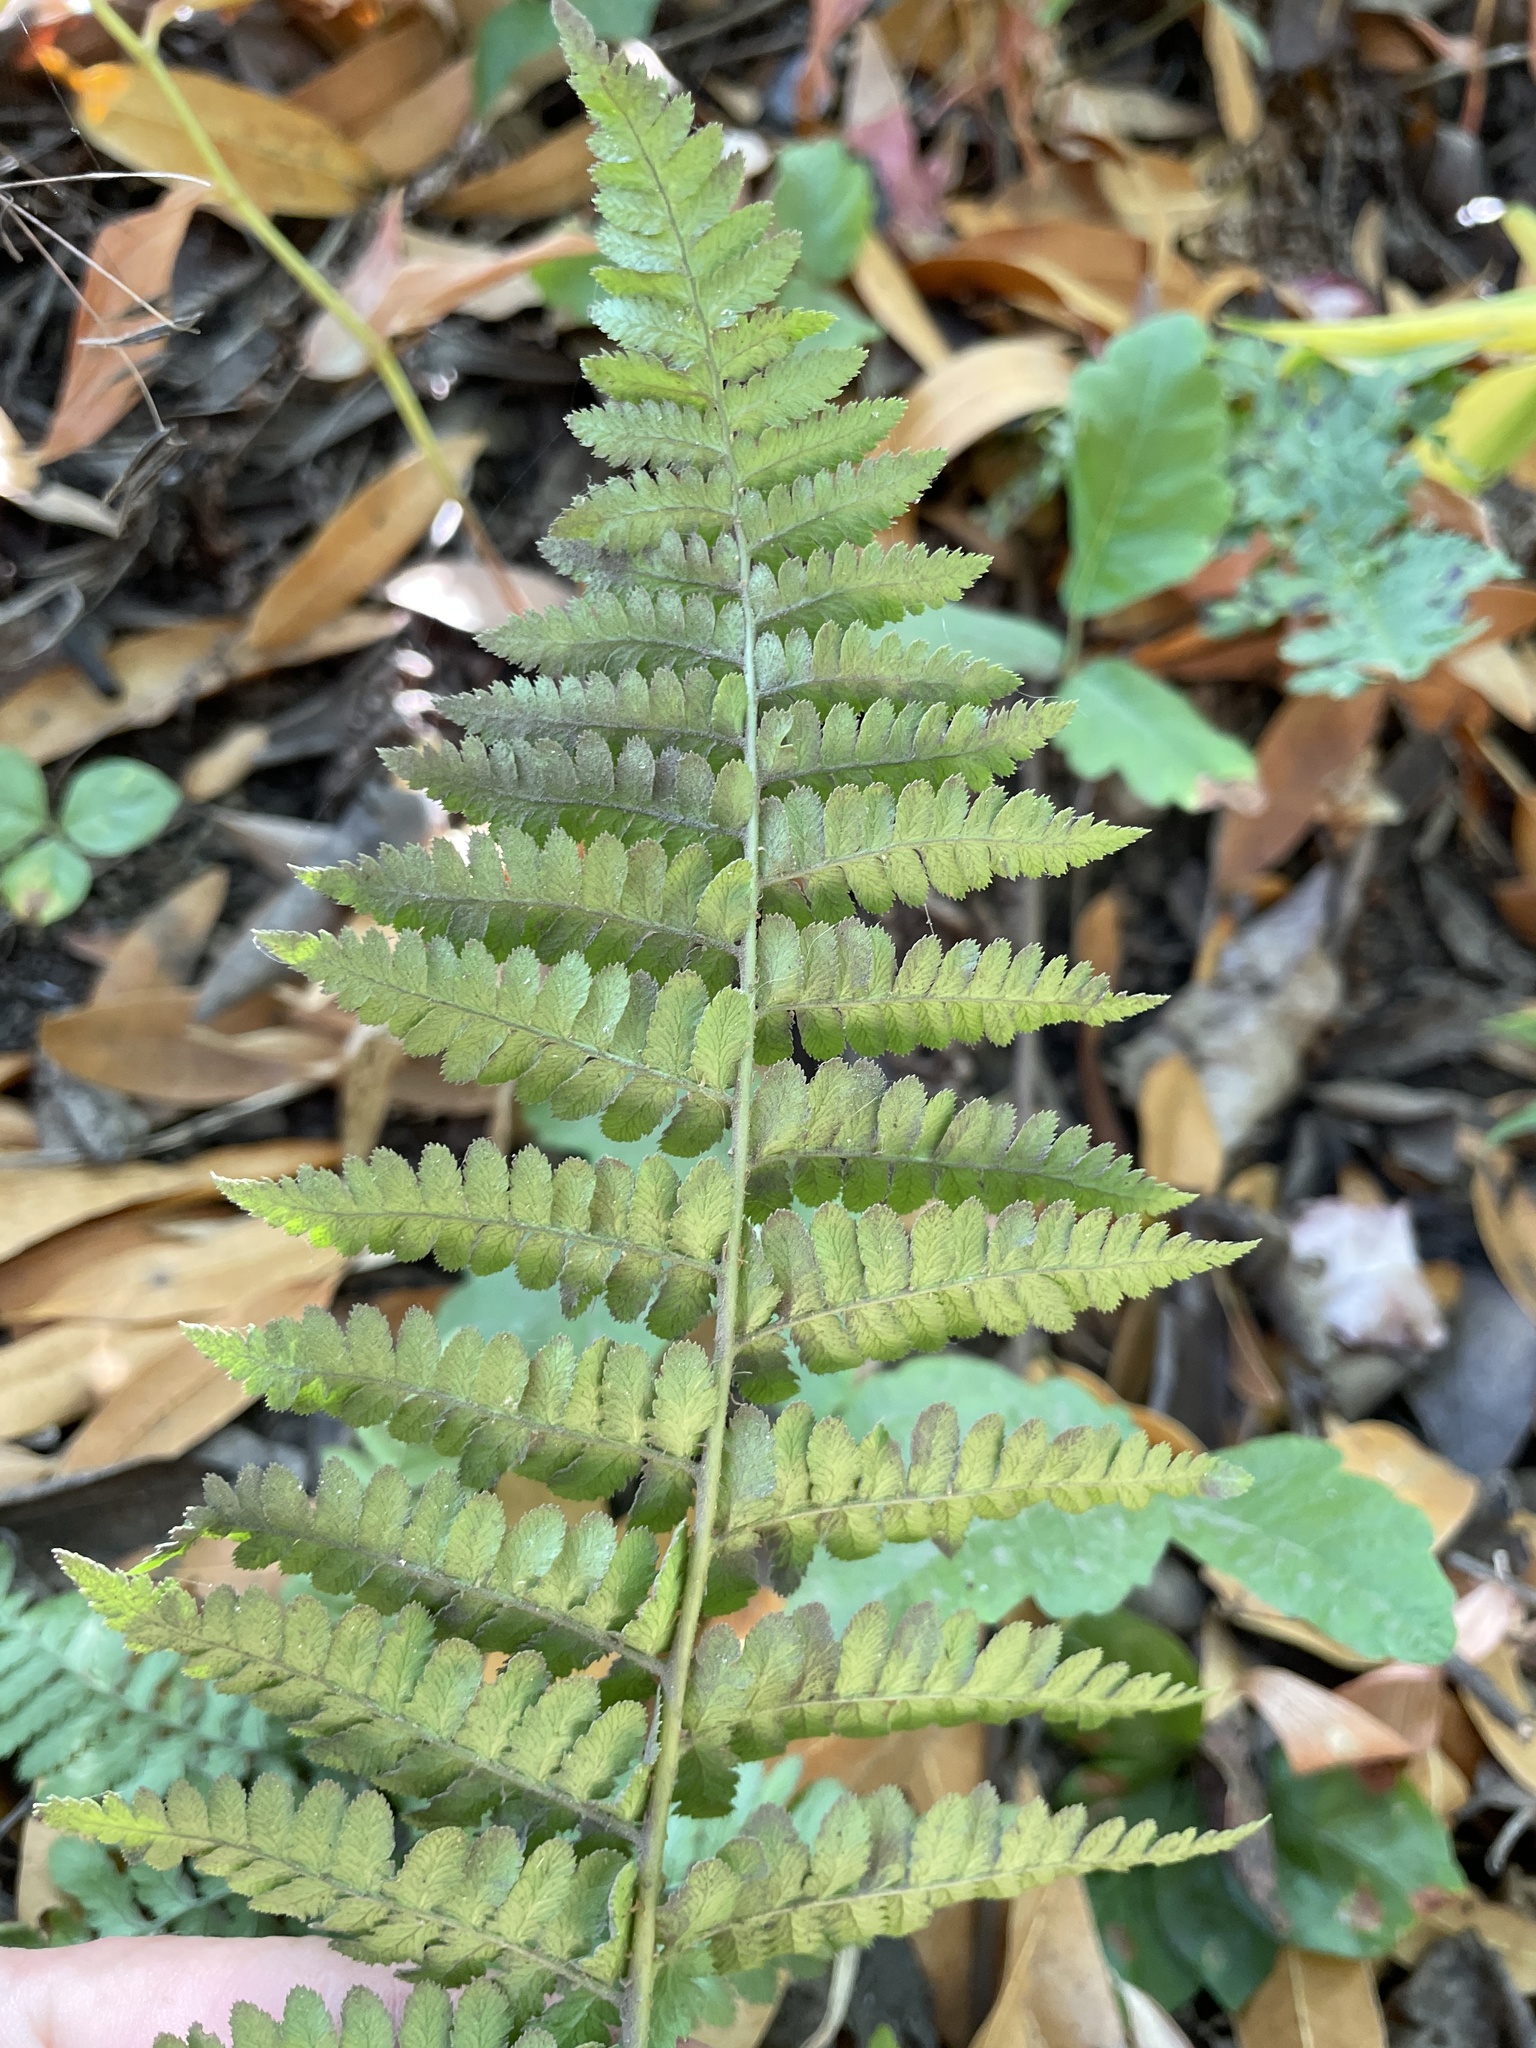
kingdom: Plantae
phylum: Tracheophyta
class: Polypodiopsida
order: Polypodiales
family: Dryopteridaceae
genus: Dryopteris
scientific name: Dryopteris arguta
